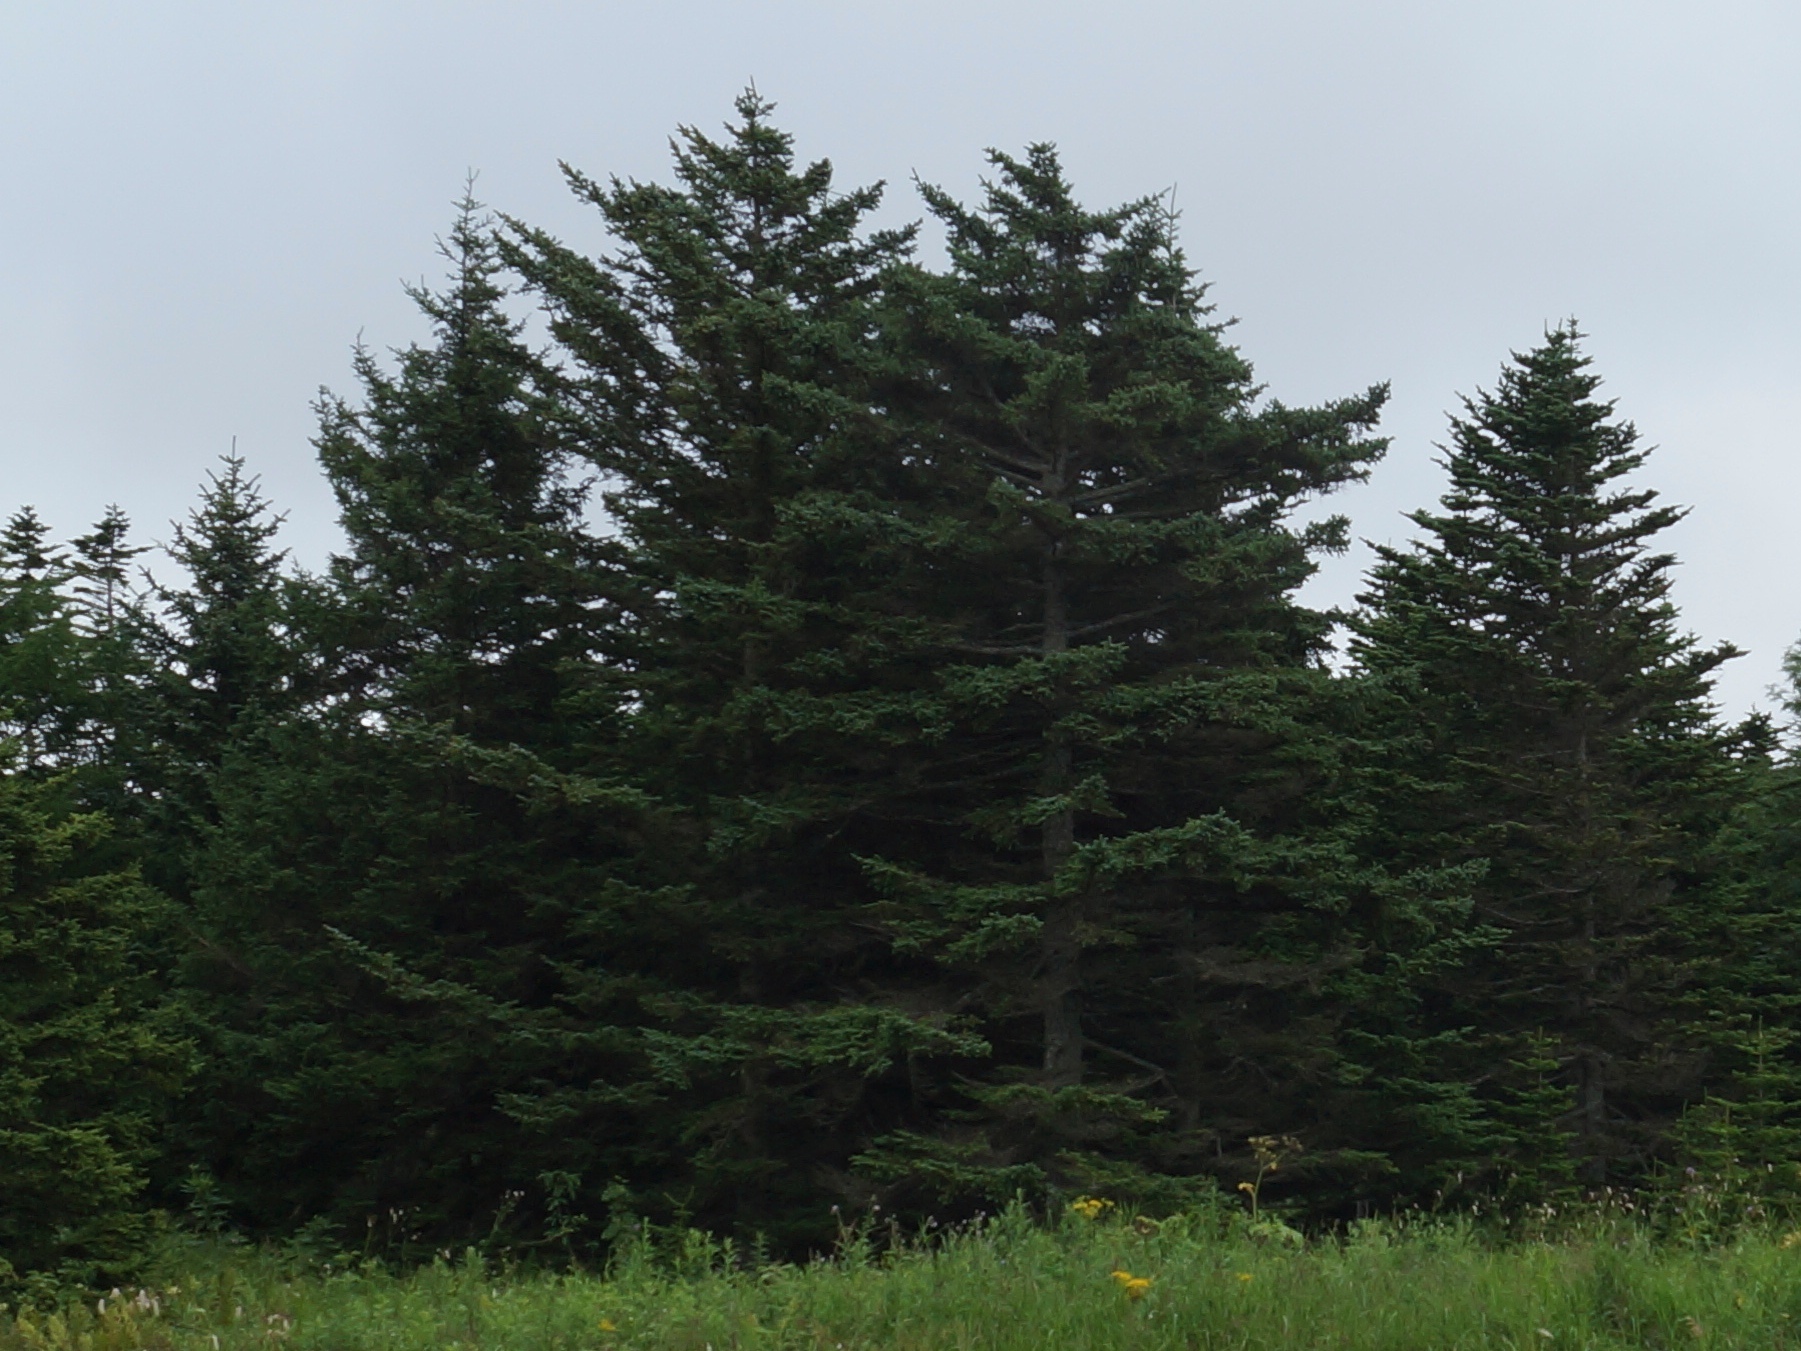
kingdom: Plantae
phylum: Tracheophyta
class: Pinopsida
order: Pinales
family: Pinaceae
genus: Picea
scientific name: Picea glehnii
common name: Sakhalin spruce
